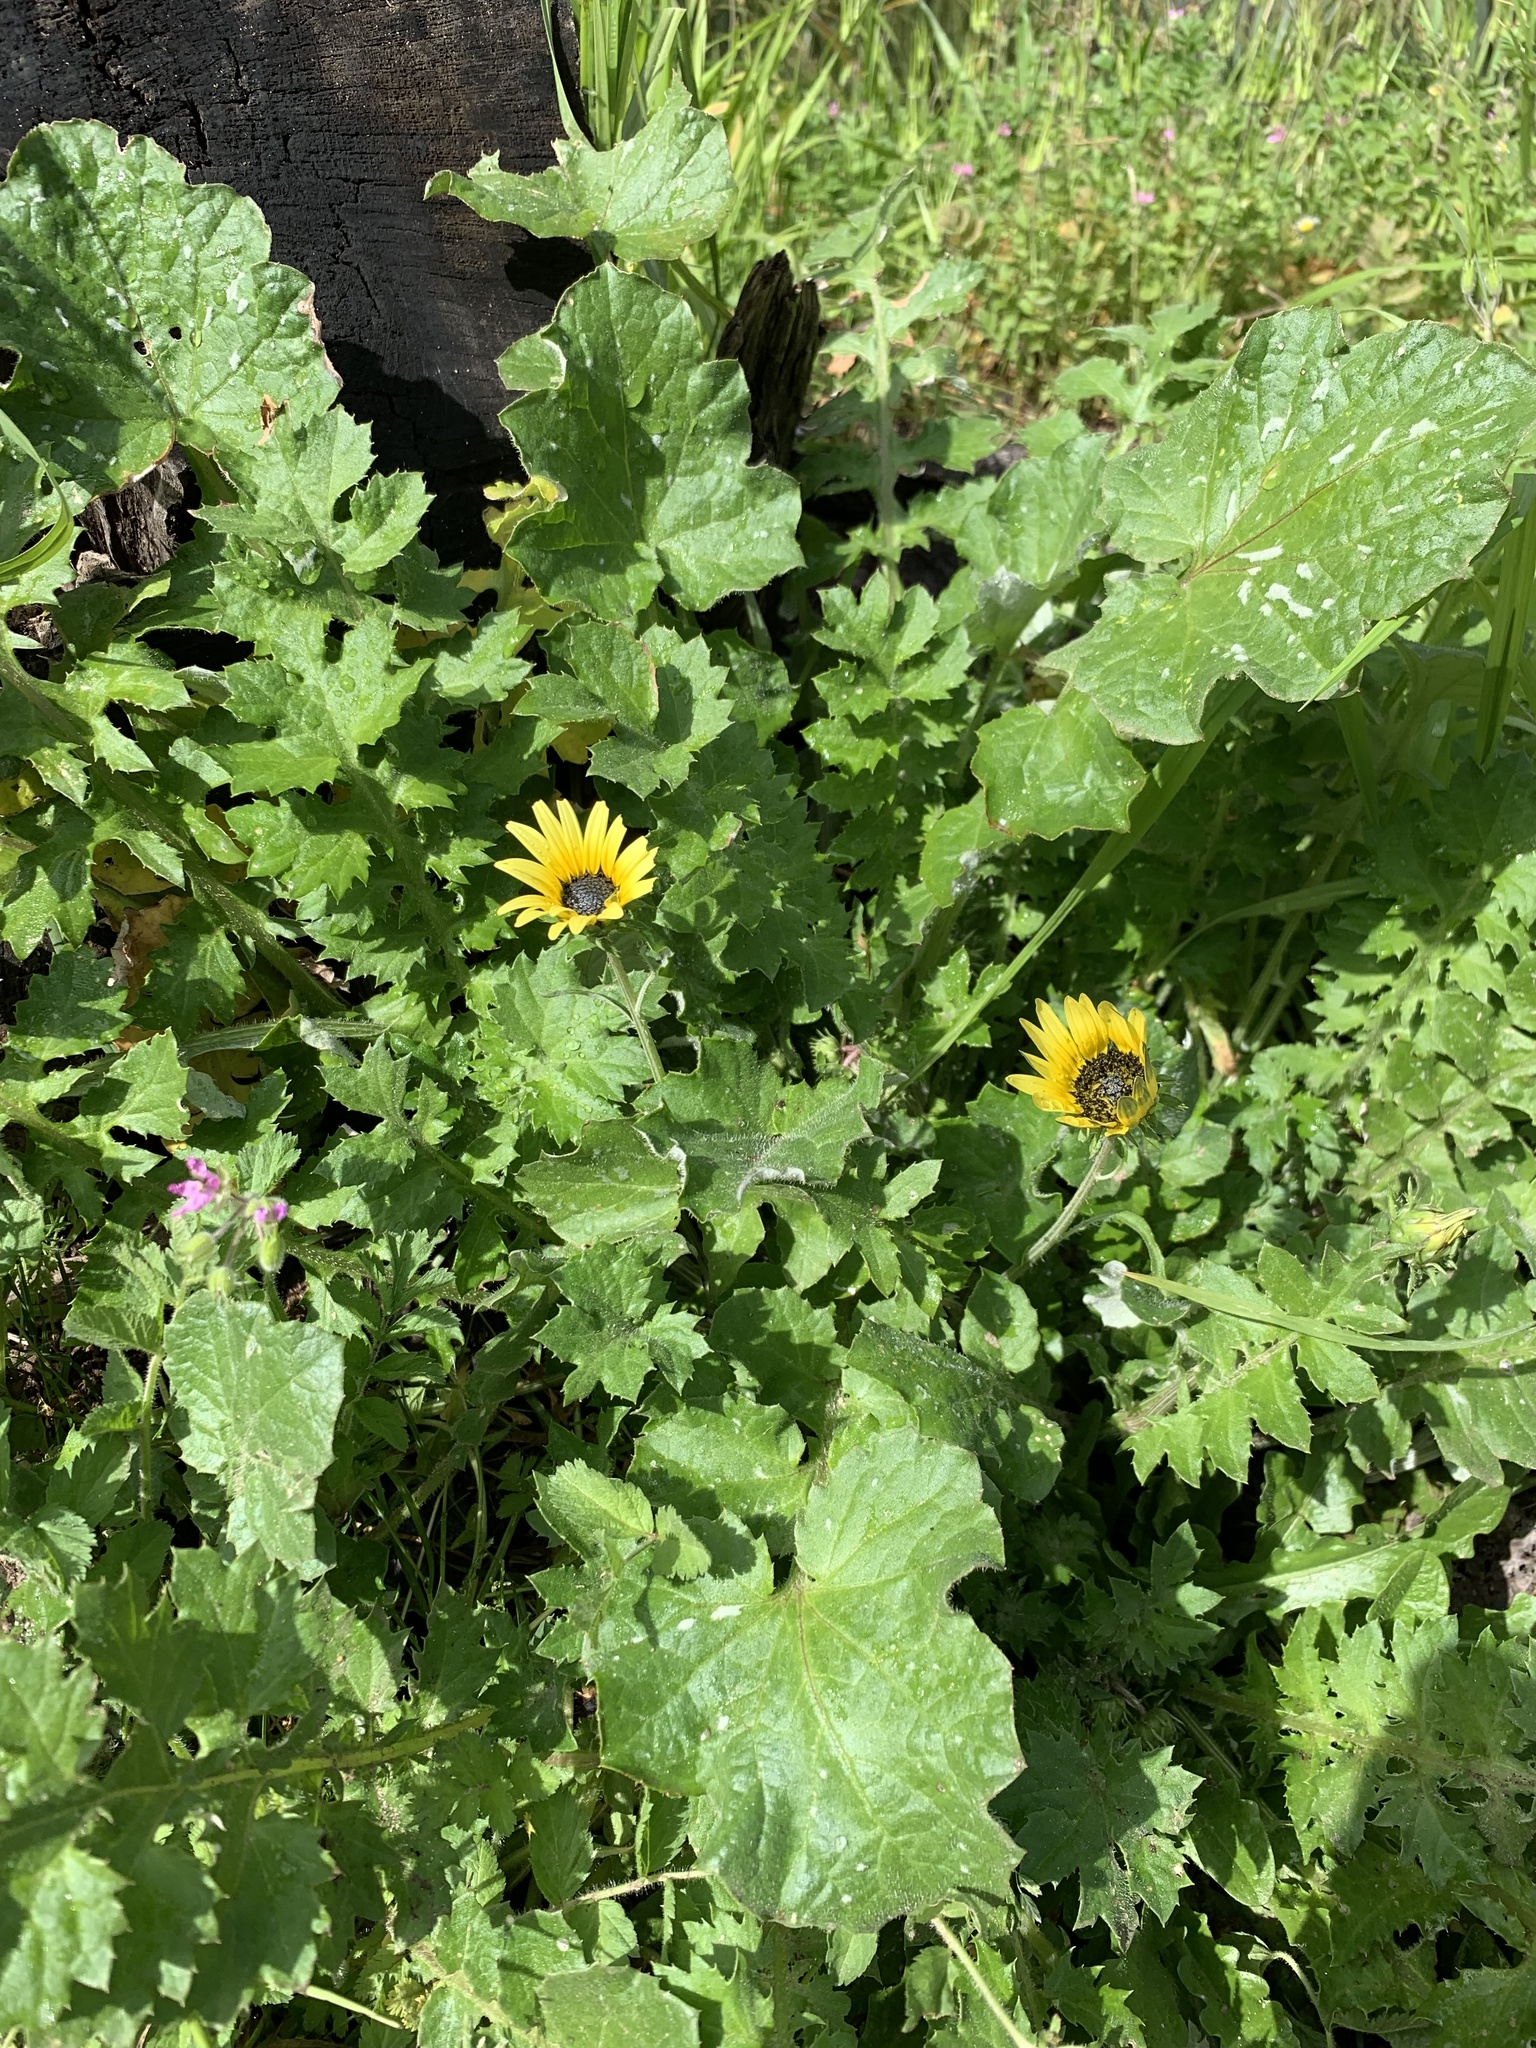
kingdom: Plantae
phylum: Tracheophyta
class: Magnoliopsida
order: Asterales
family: Asteraceae
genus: Arctotheca
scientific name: Arctotheca calendula
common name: Capeweed
